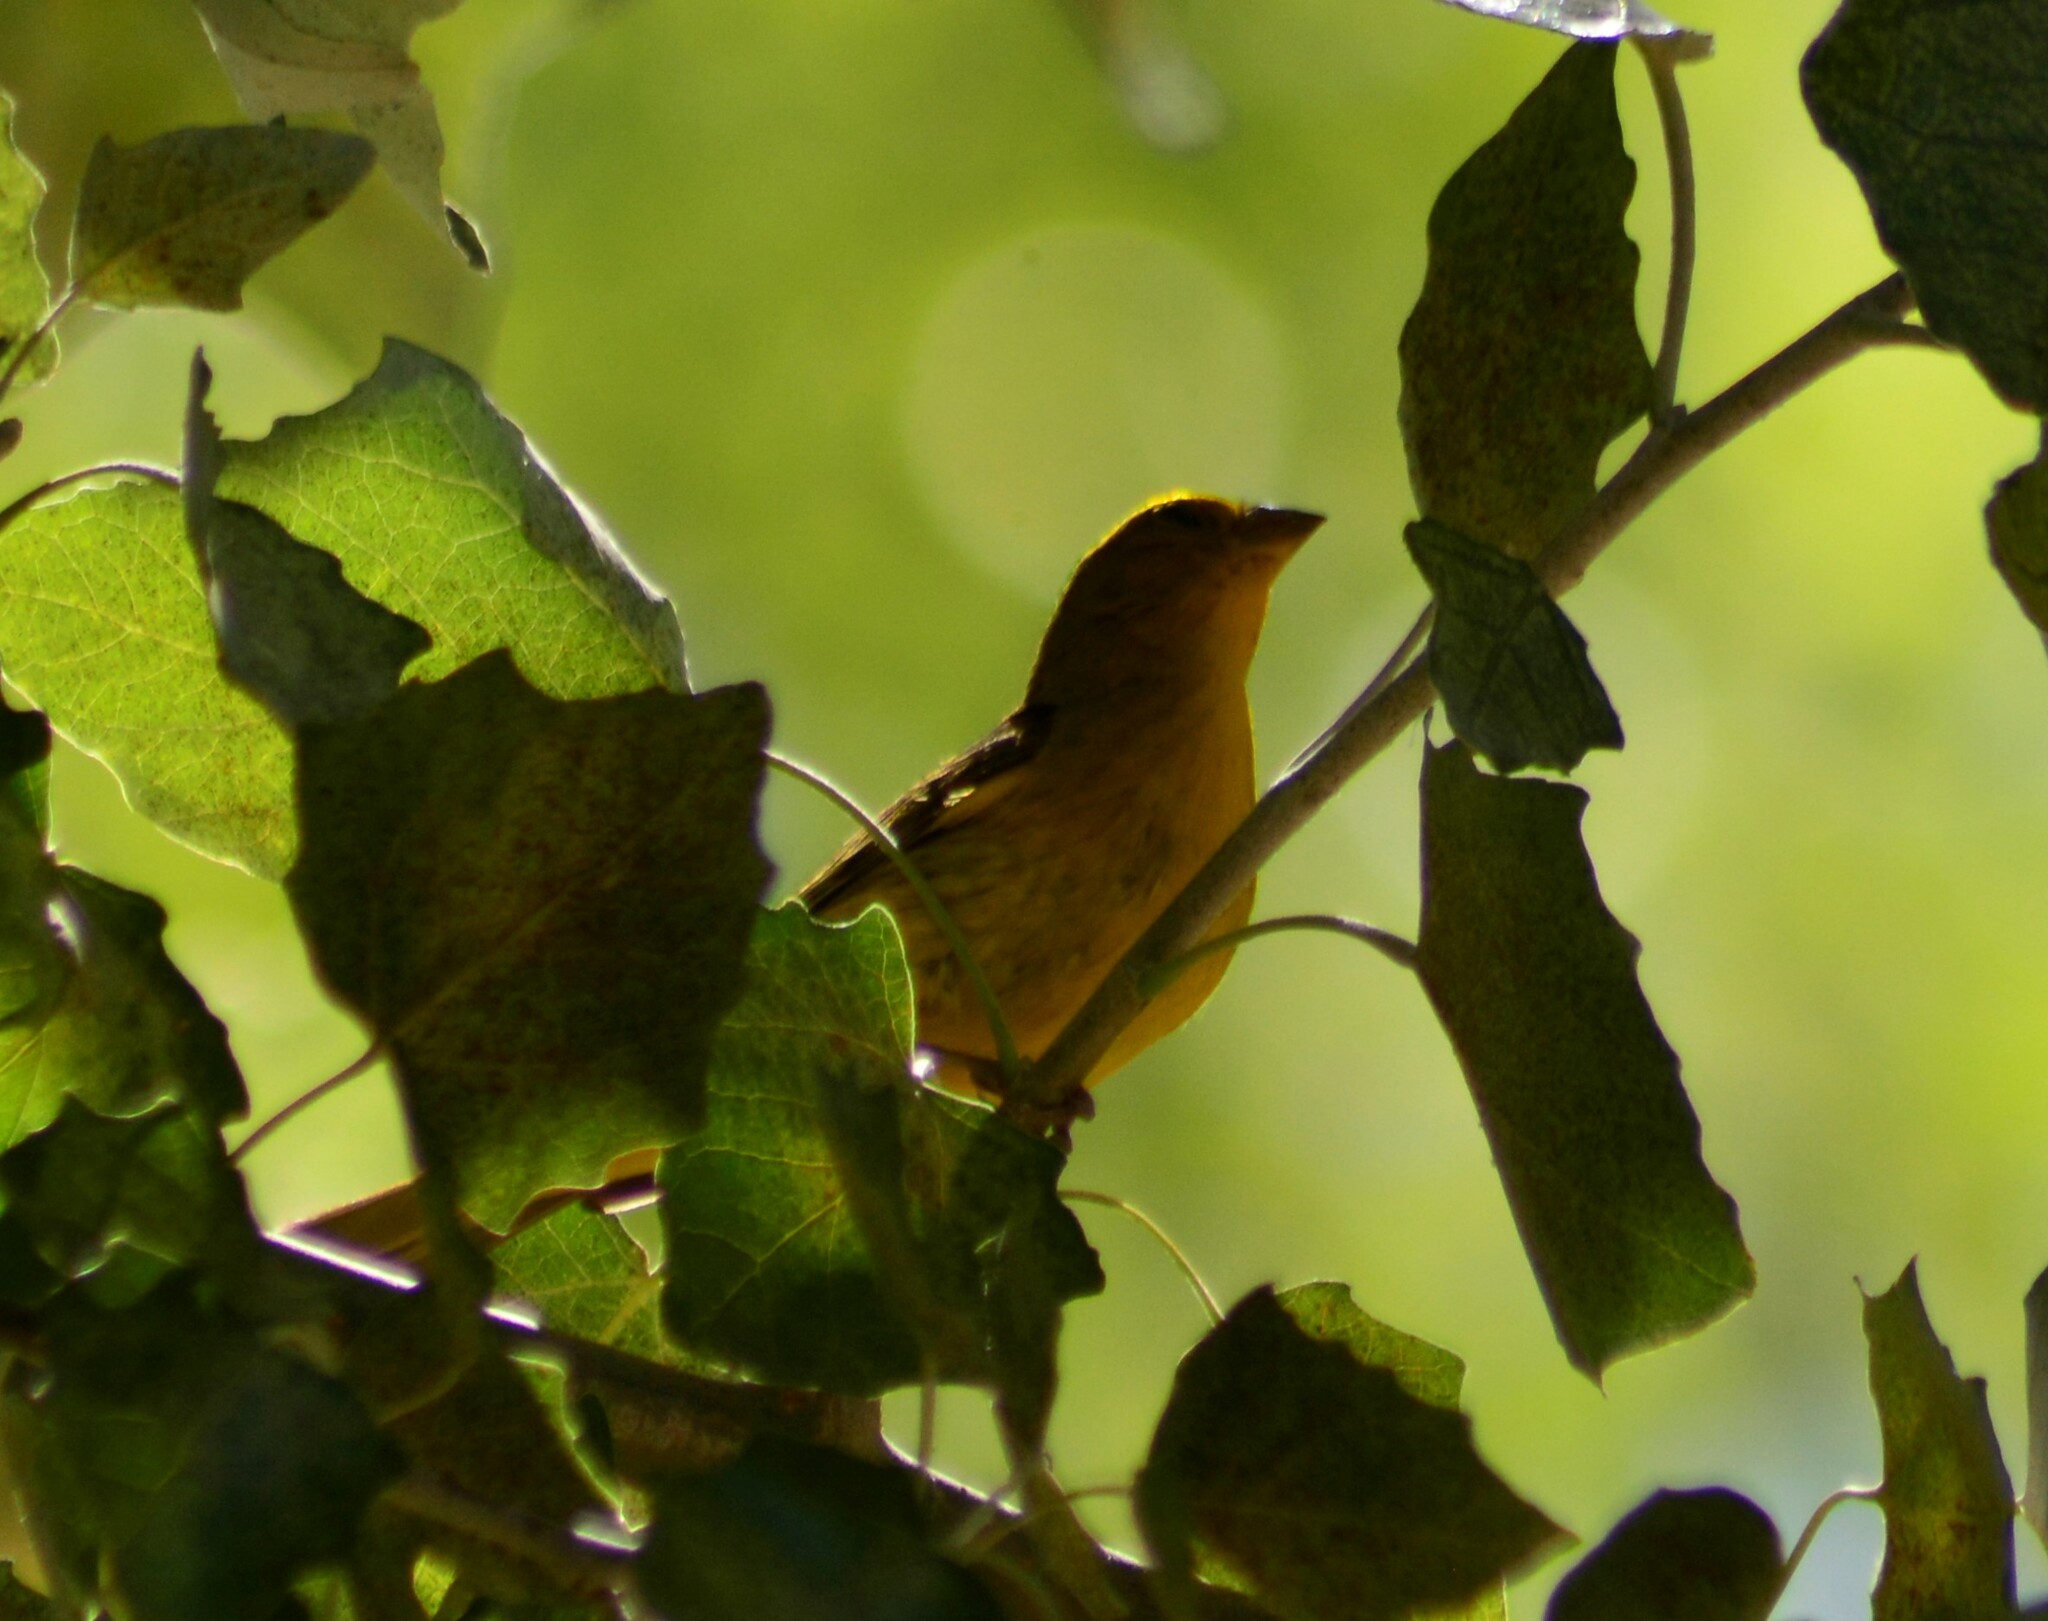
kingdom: Animalia
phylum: Chordata
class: Aves
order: Passeriformes
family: Thraupidae
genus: Sicalis
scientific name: Sicalis flaveola
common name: Saffron finch
